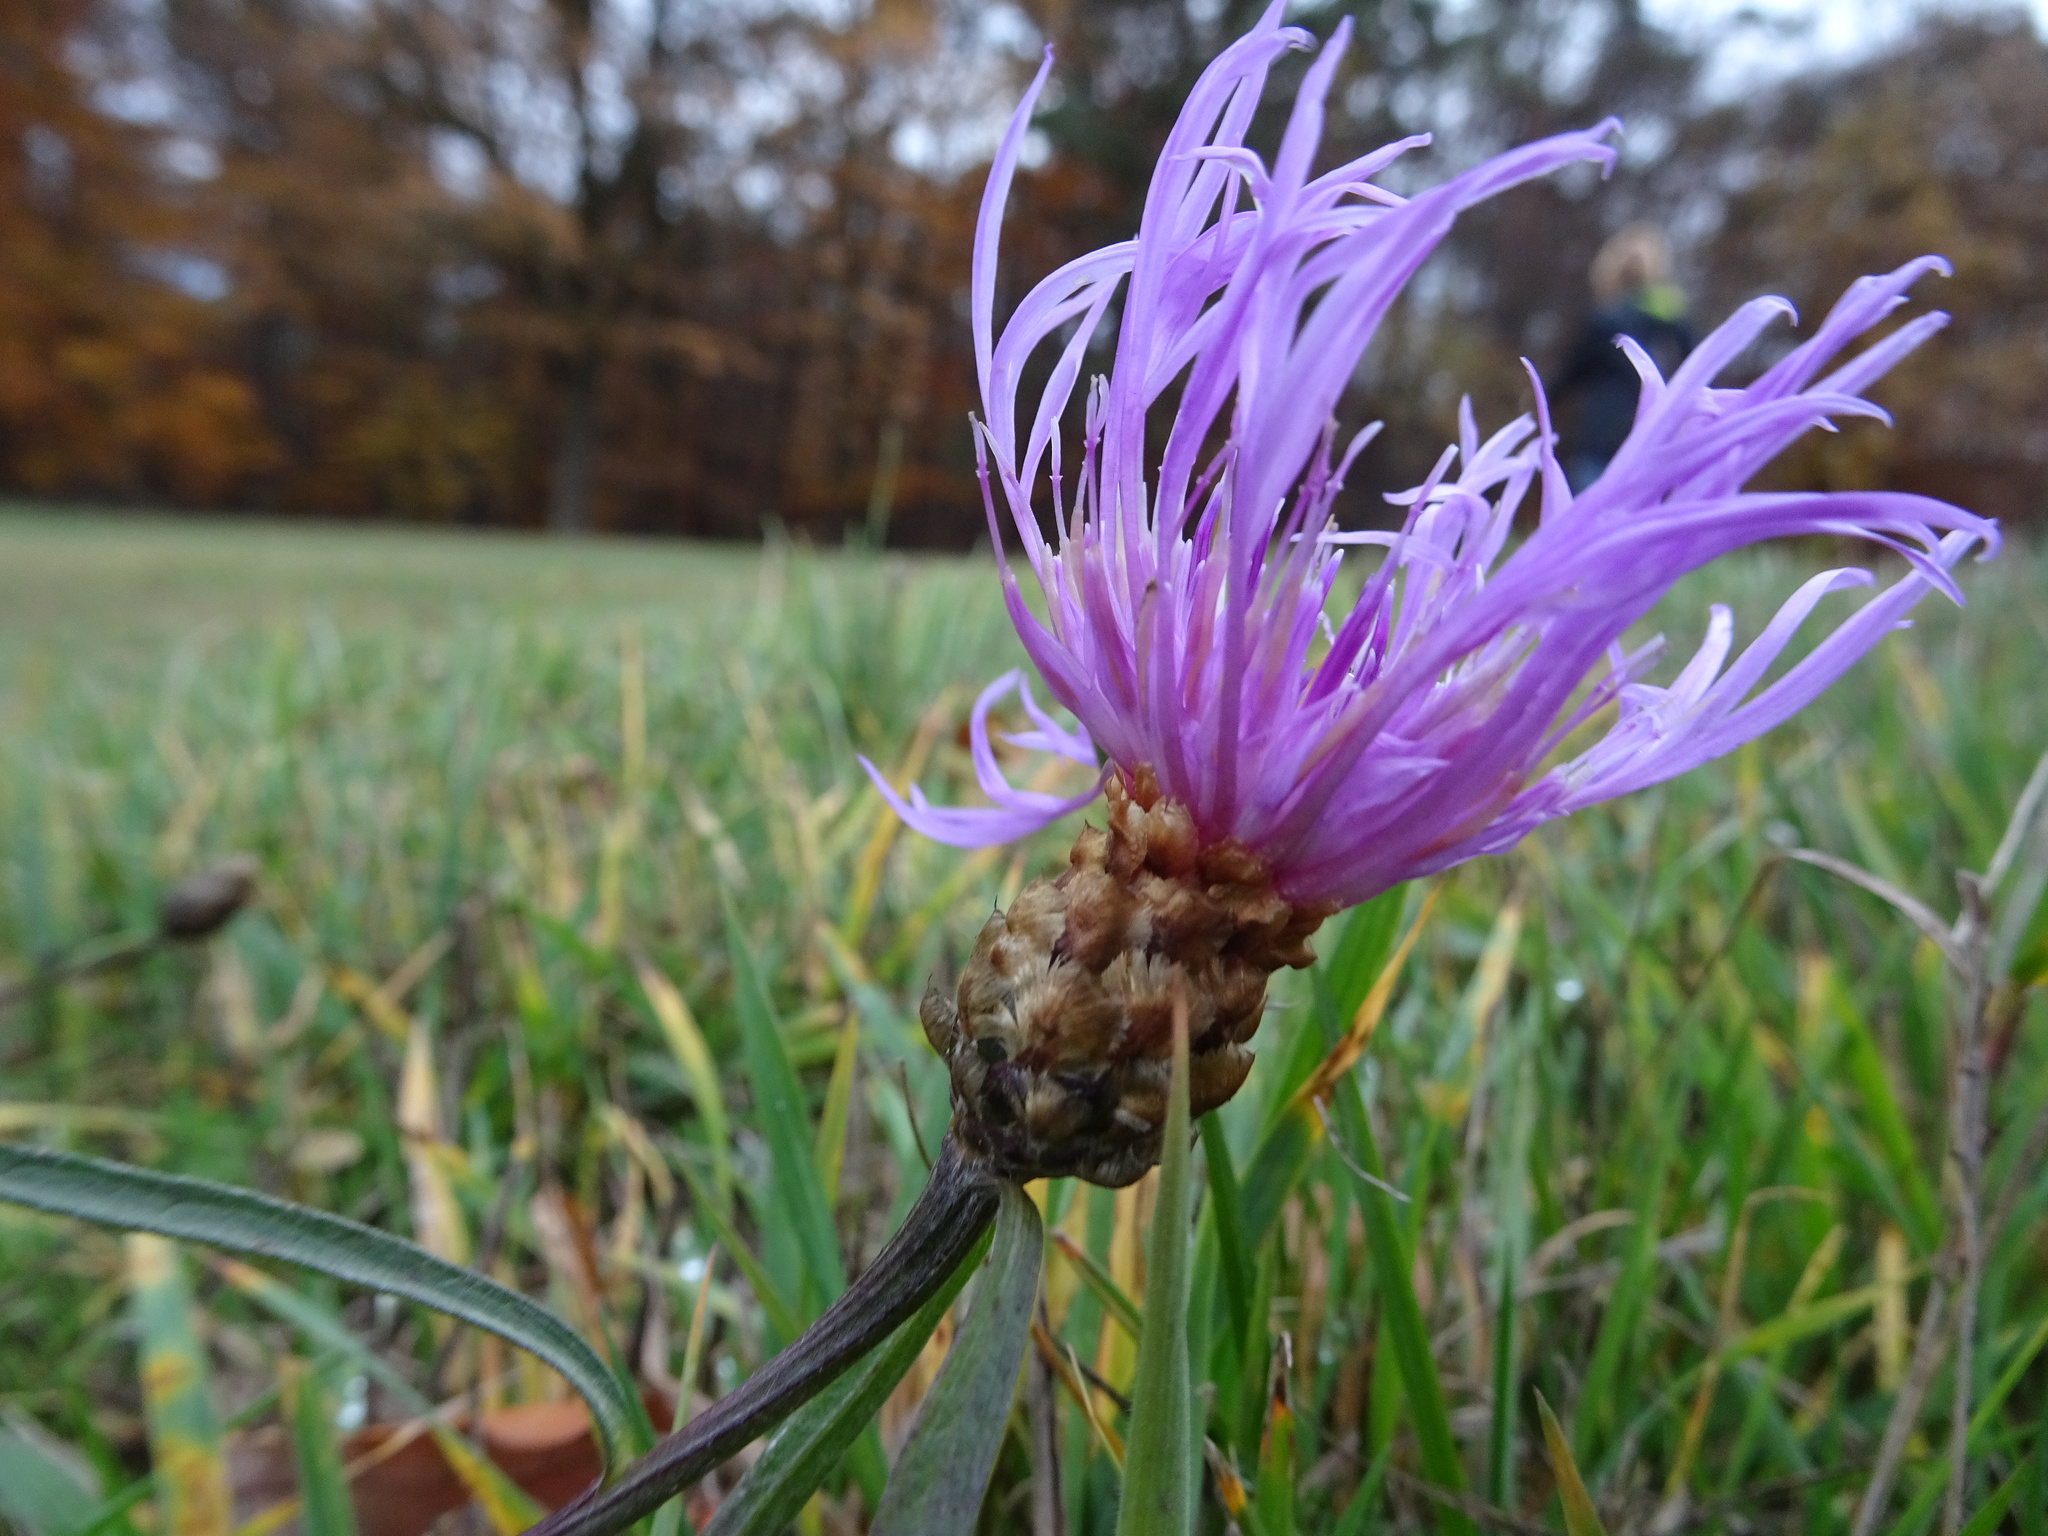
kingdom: Plantae
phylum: Tracheophyta
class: Magnoliopsida
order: Asterales
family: Asteraceae
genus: Centaurea
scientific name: Centaurea jacea
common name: Brown knapweed
